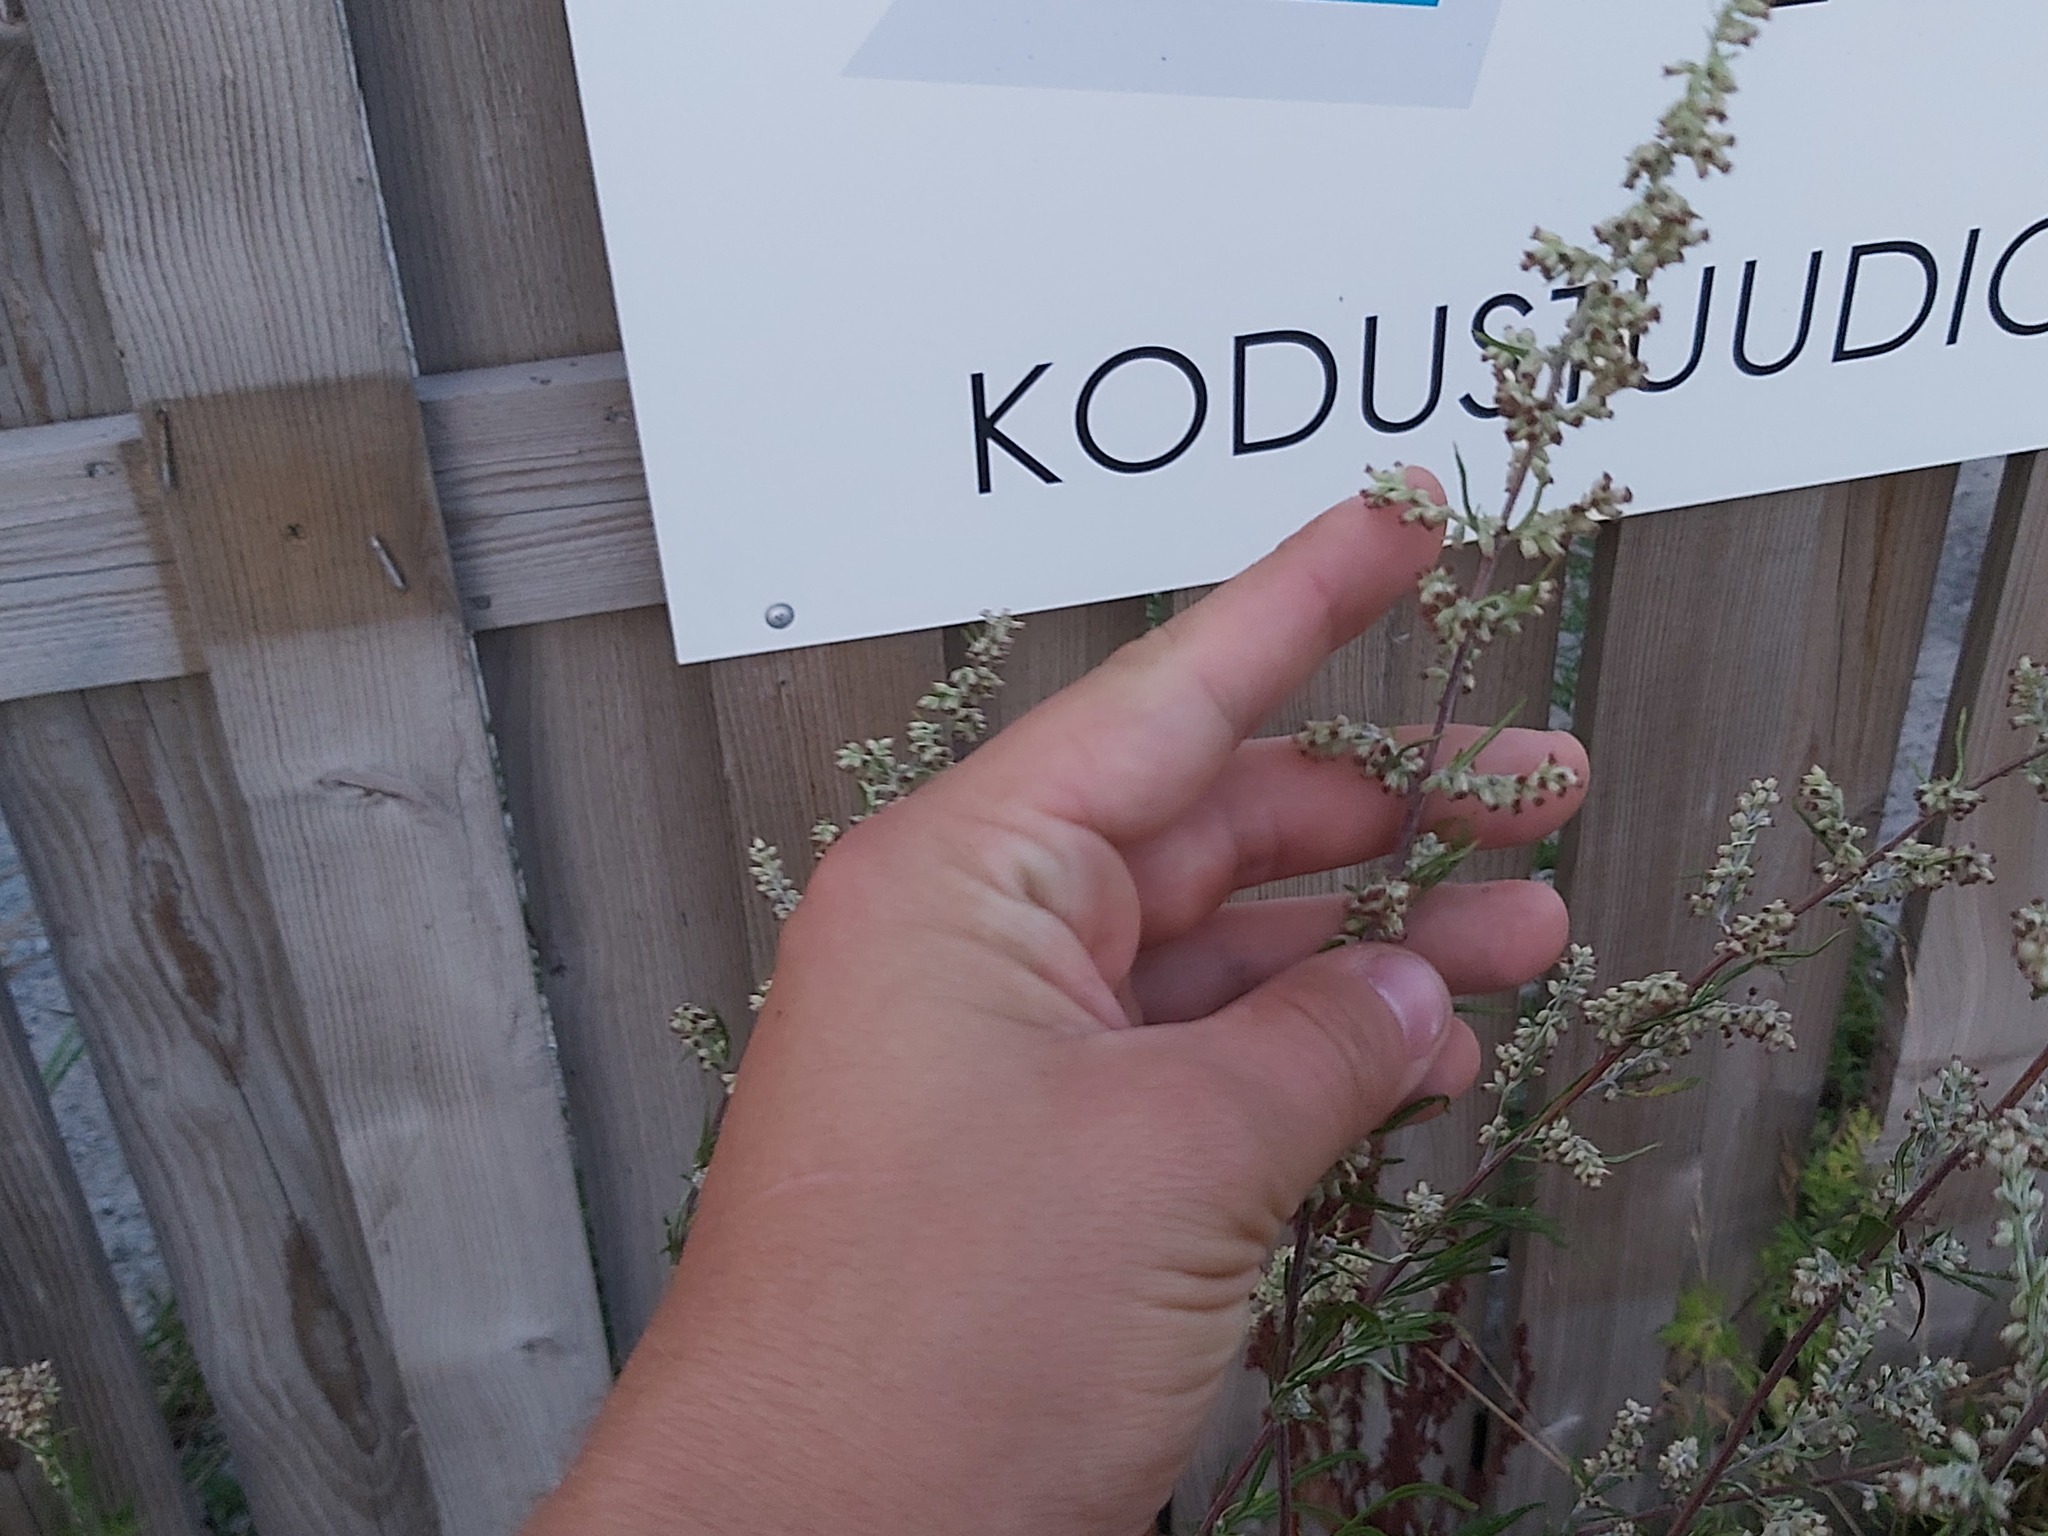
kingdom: Plantae
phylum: Tracheophyta
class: Magnoliopsida
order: Asterales
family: Asteraceae
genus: Artemisia
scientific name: Artemisia vulgaris
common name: Mugwort
